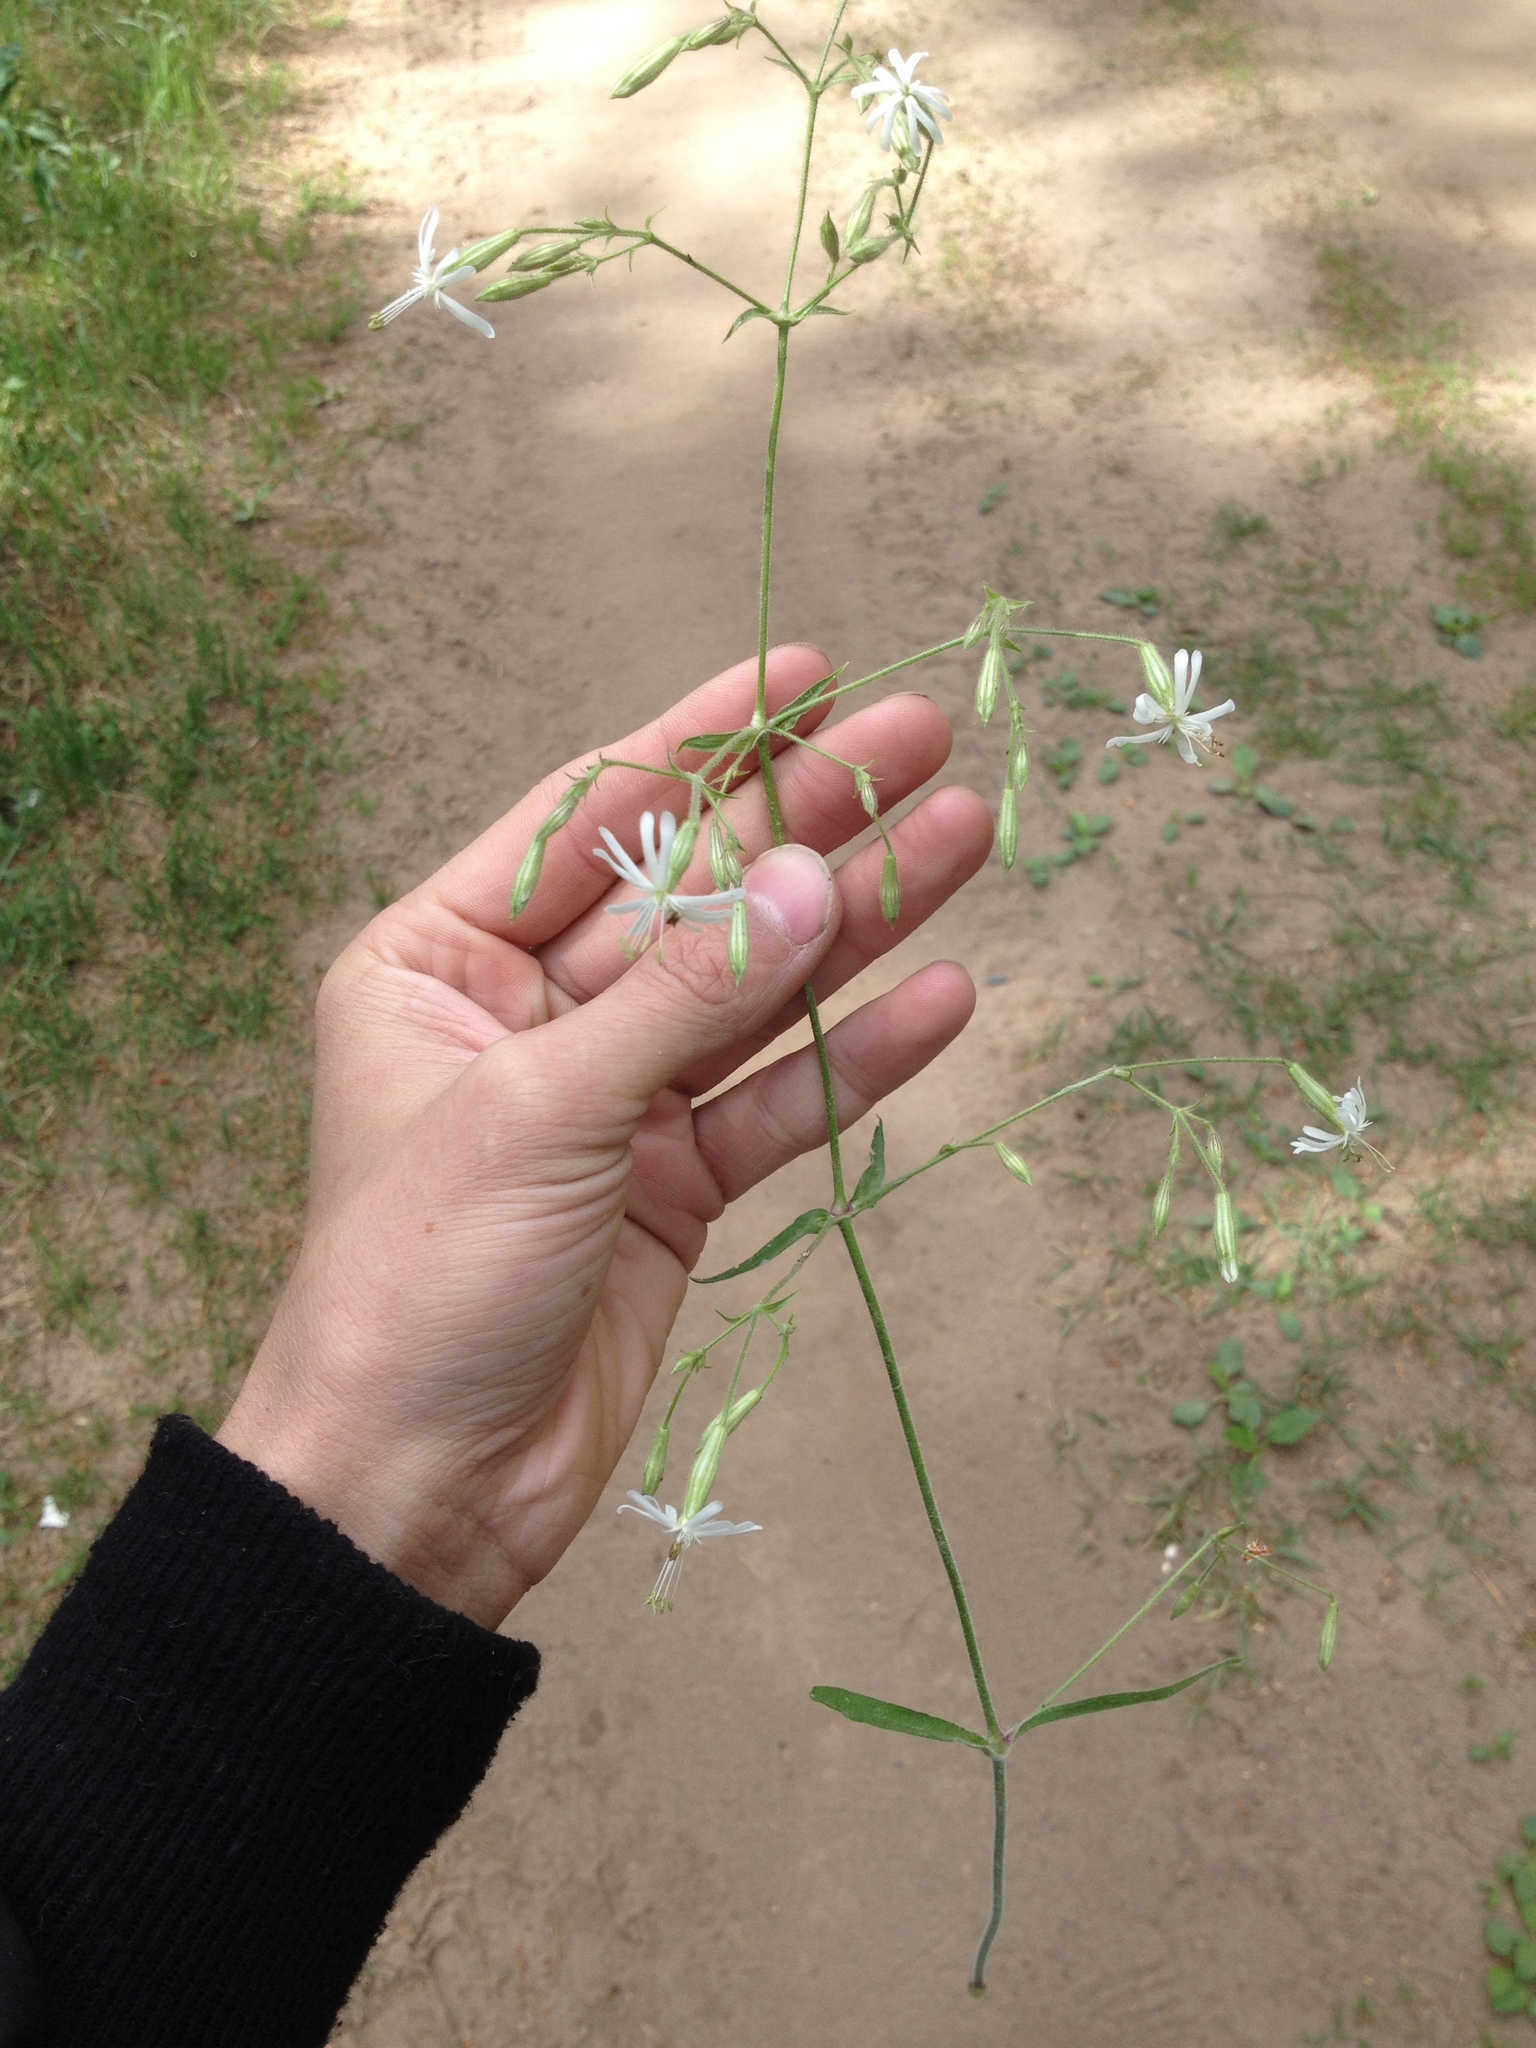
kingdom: Plantae
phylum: Tracheophyta
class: Magnoliopsida
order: Caryophyllales
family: Caryophyllaceae
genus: Silene
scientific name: Silene nutans
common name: Nottingham catchfly
